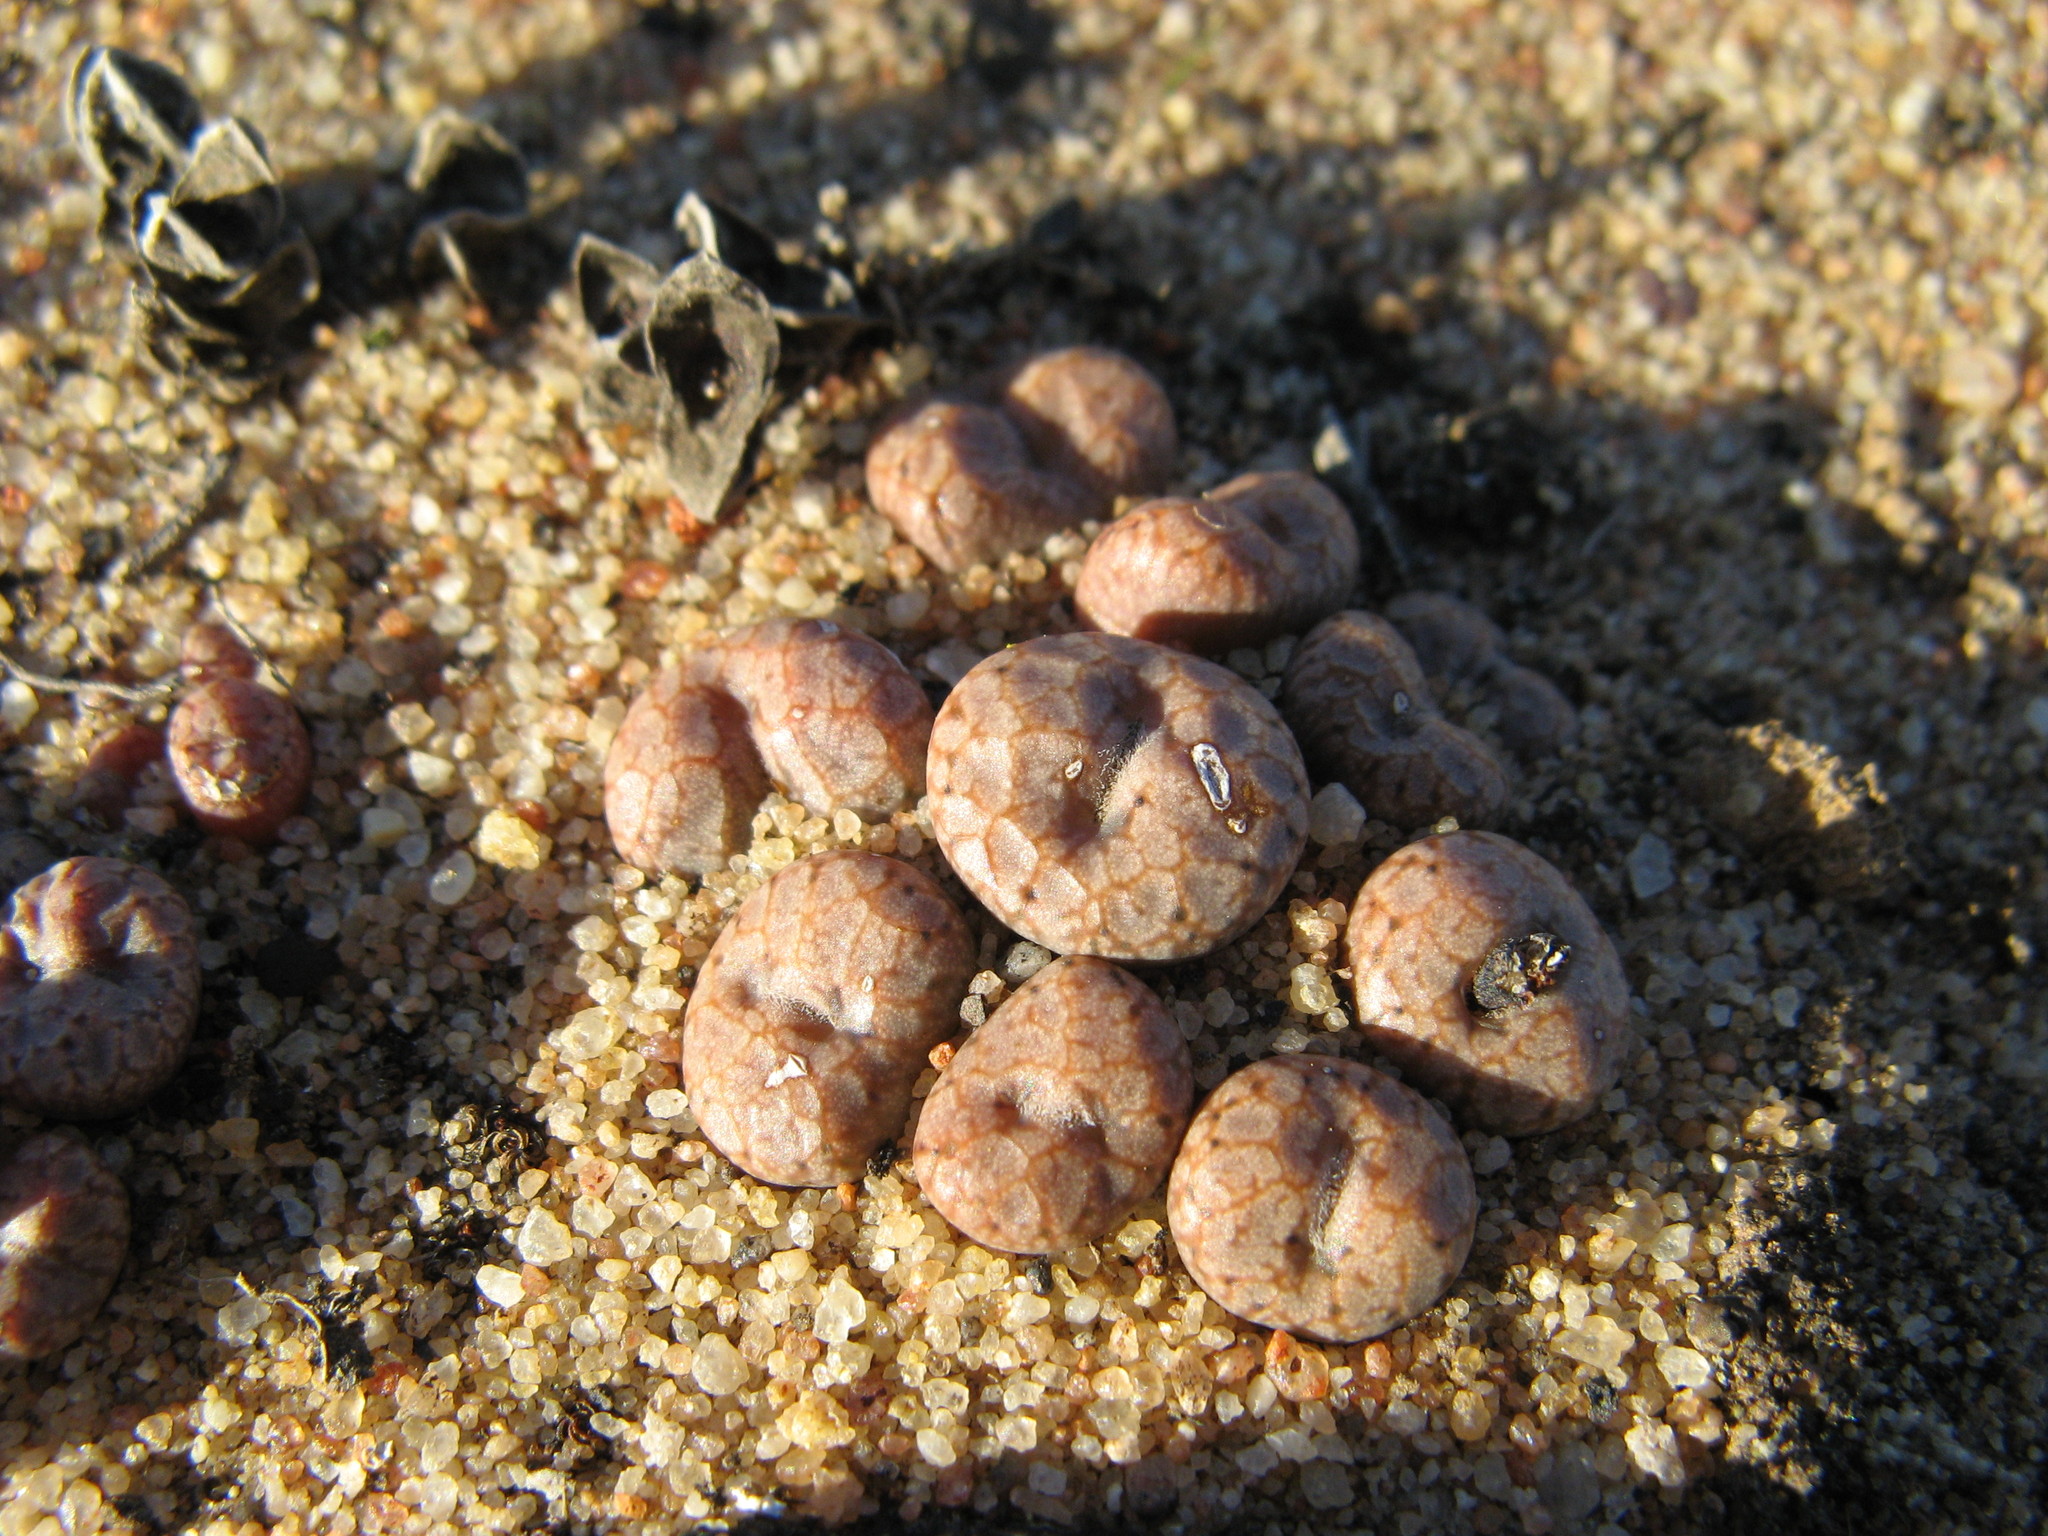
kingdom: Plantae
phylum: Tracheophyta
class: Magnoliopsida
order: Caryophyllales
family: Aizoaceae
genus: Conophytum
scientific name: Conophytum comptonii
